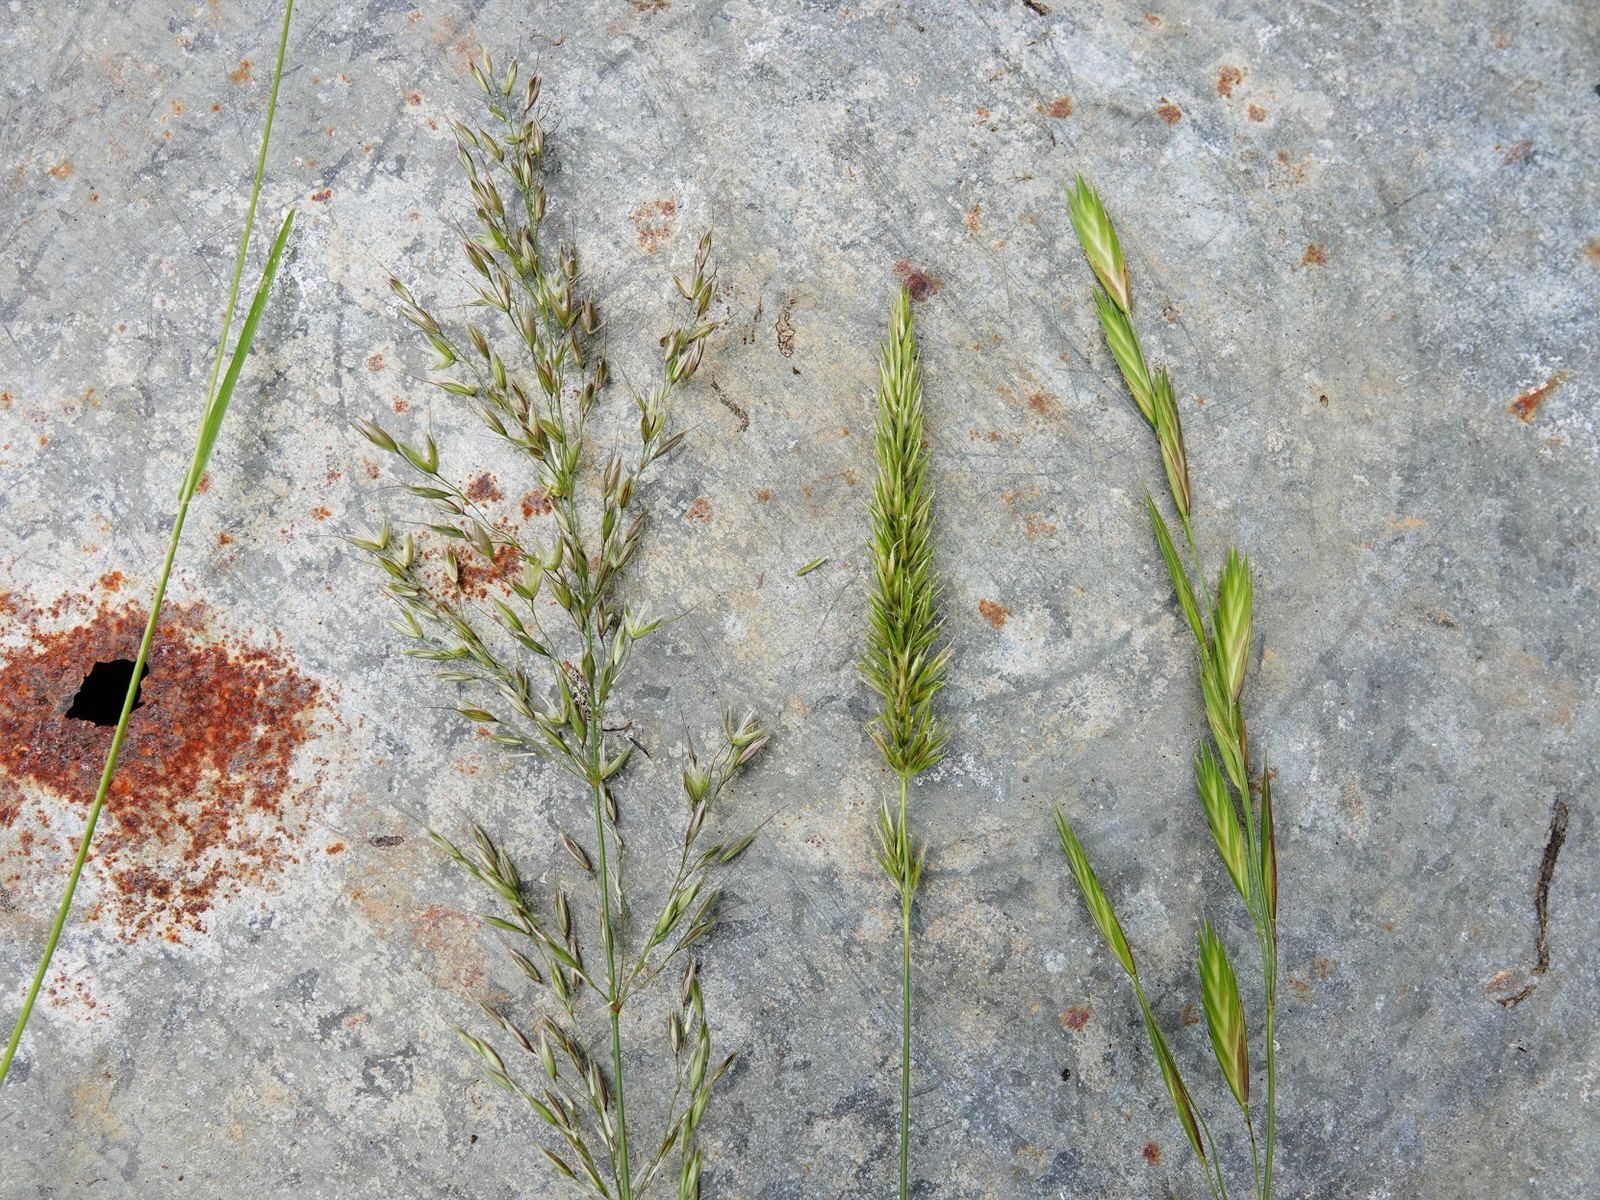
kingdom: Plantae
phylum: Tracheophyta
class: Liliopsida
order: Poales
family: Poaceae
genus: Anthoxanthum
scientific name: Anthoxanthum odoratum
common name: Sweet vernalgrass
